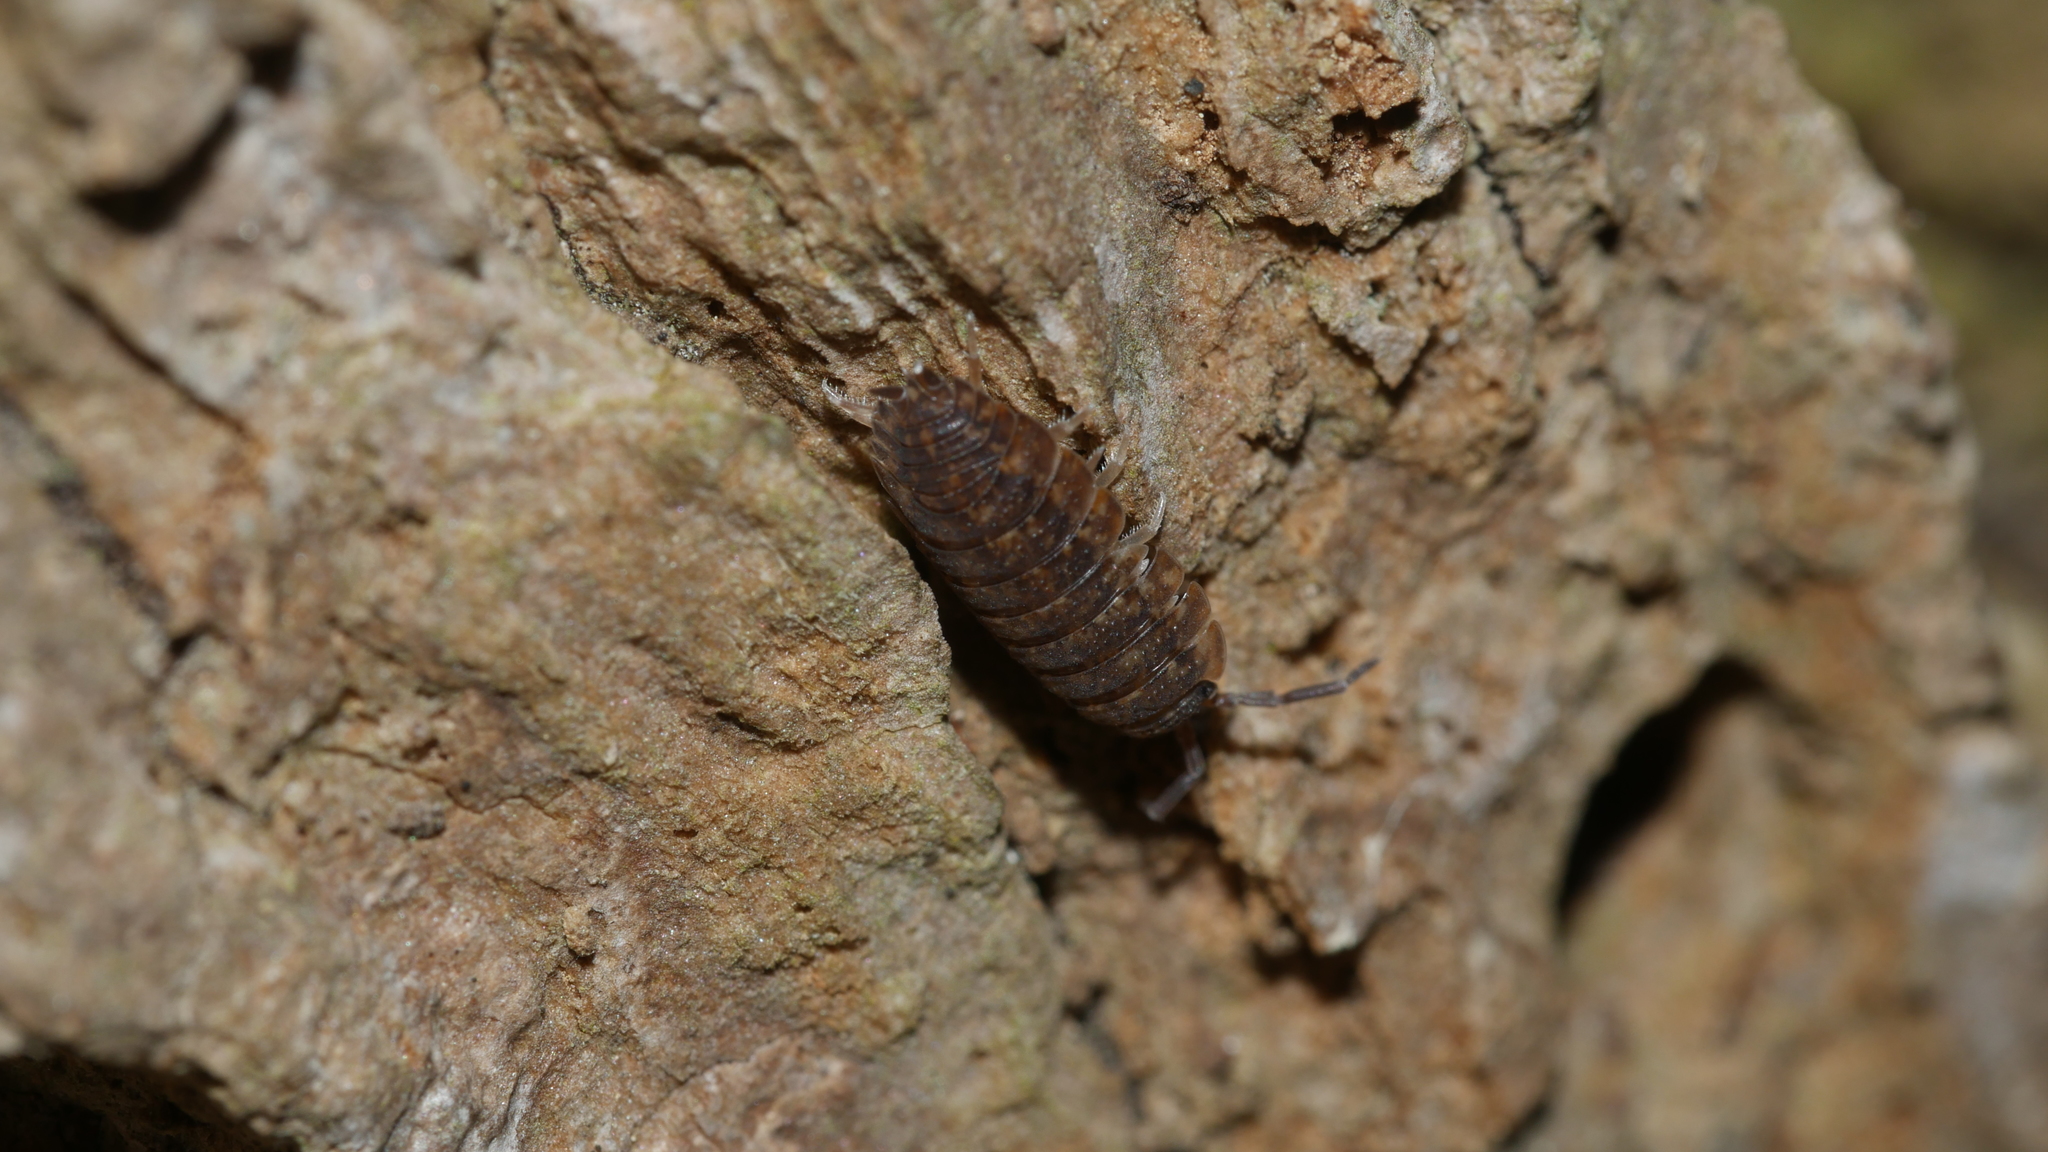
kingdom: Animalia
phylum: Arthropoda
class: Malacostraca
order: Isopoda
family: Porcellionidae
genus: Porcellio
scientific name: Porcellio scaber
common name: Common rough woodlouse
